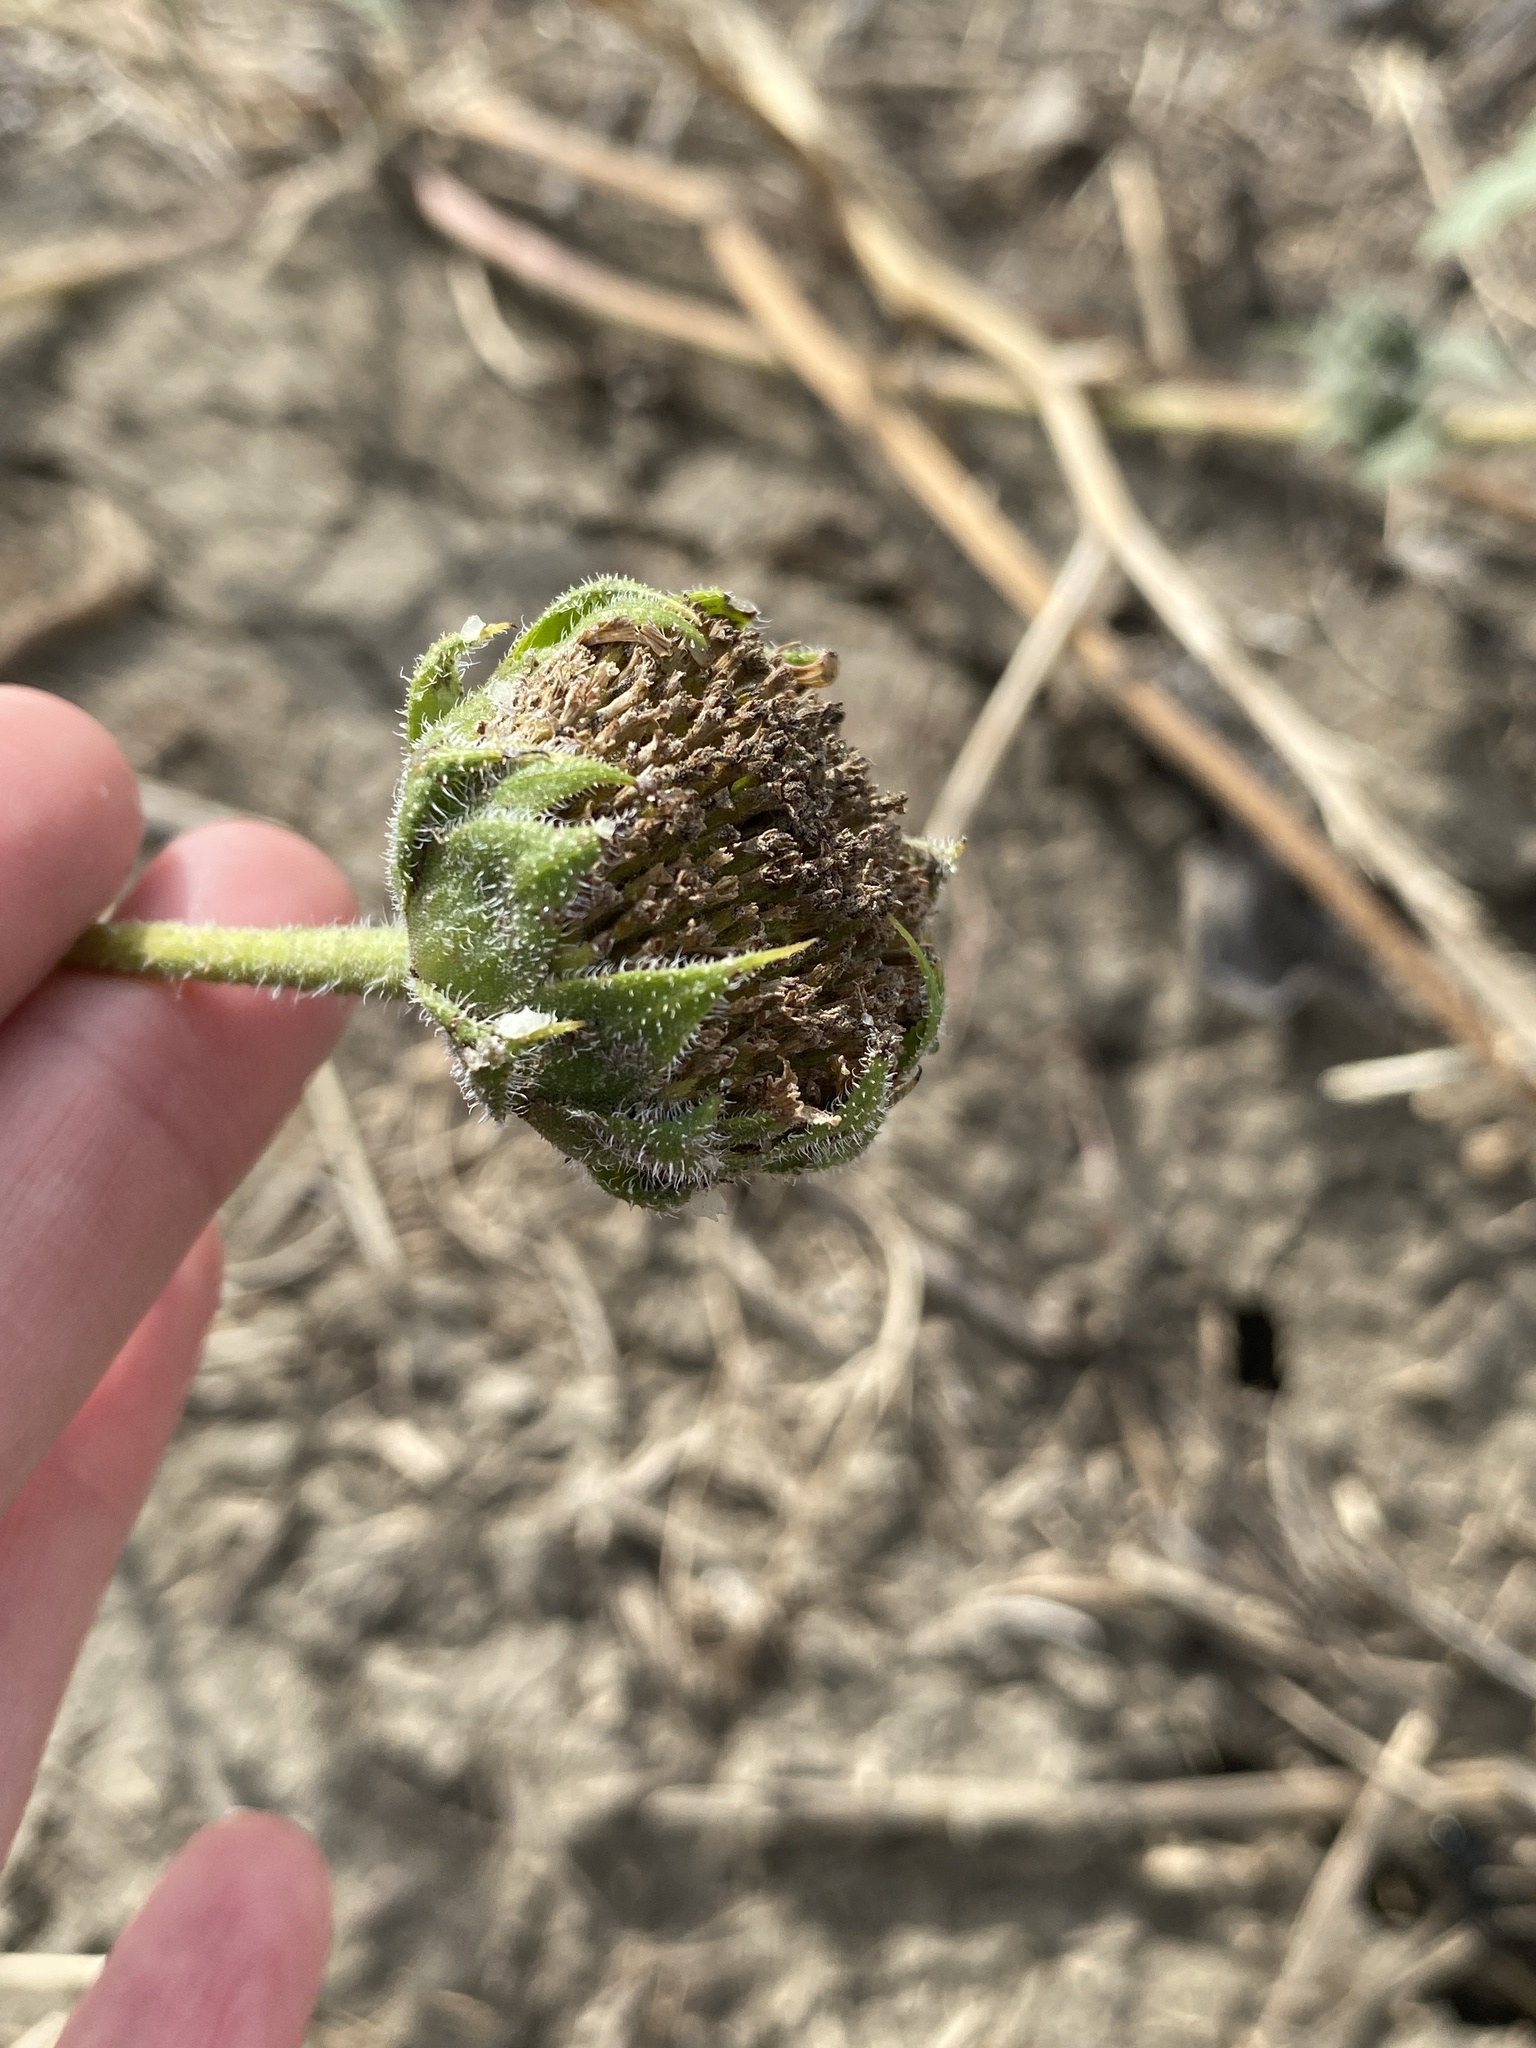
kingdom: Plantae
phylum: Tracheophyta
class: Magnoliopsida
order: Asterales
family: Asteraceae
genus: Helianthus
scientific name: Helianthus annuus
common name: Sunflower
